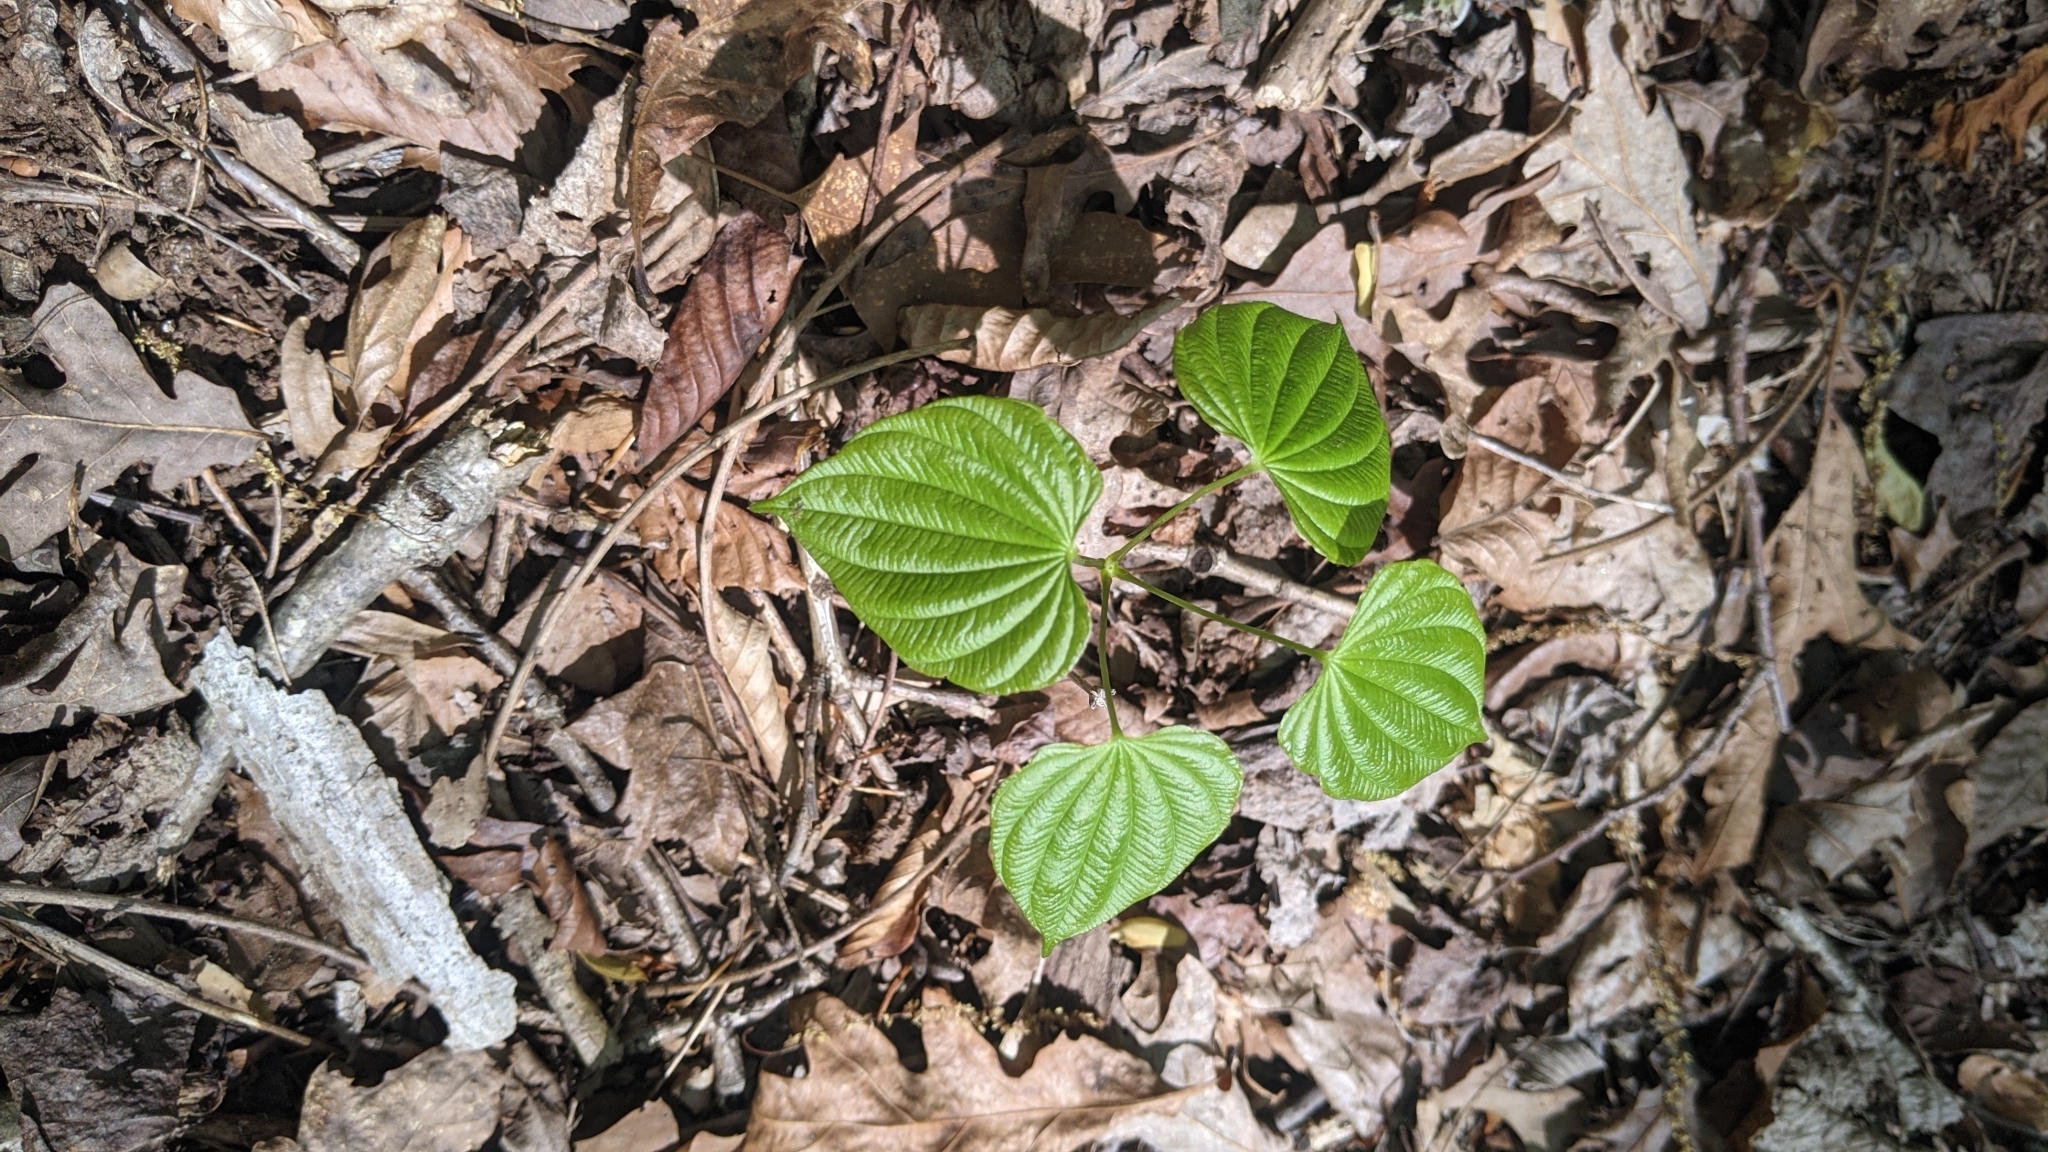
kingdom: Plantae
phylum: Tracheophyta
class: Liliopsida
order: Dioscoreales
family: Dioscoreaceae
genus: Dioscorea
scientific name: Dioscorea villosa
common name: Wild yam
